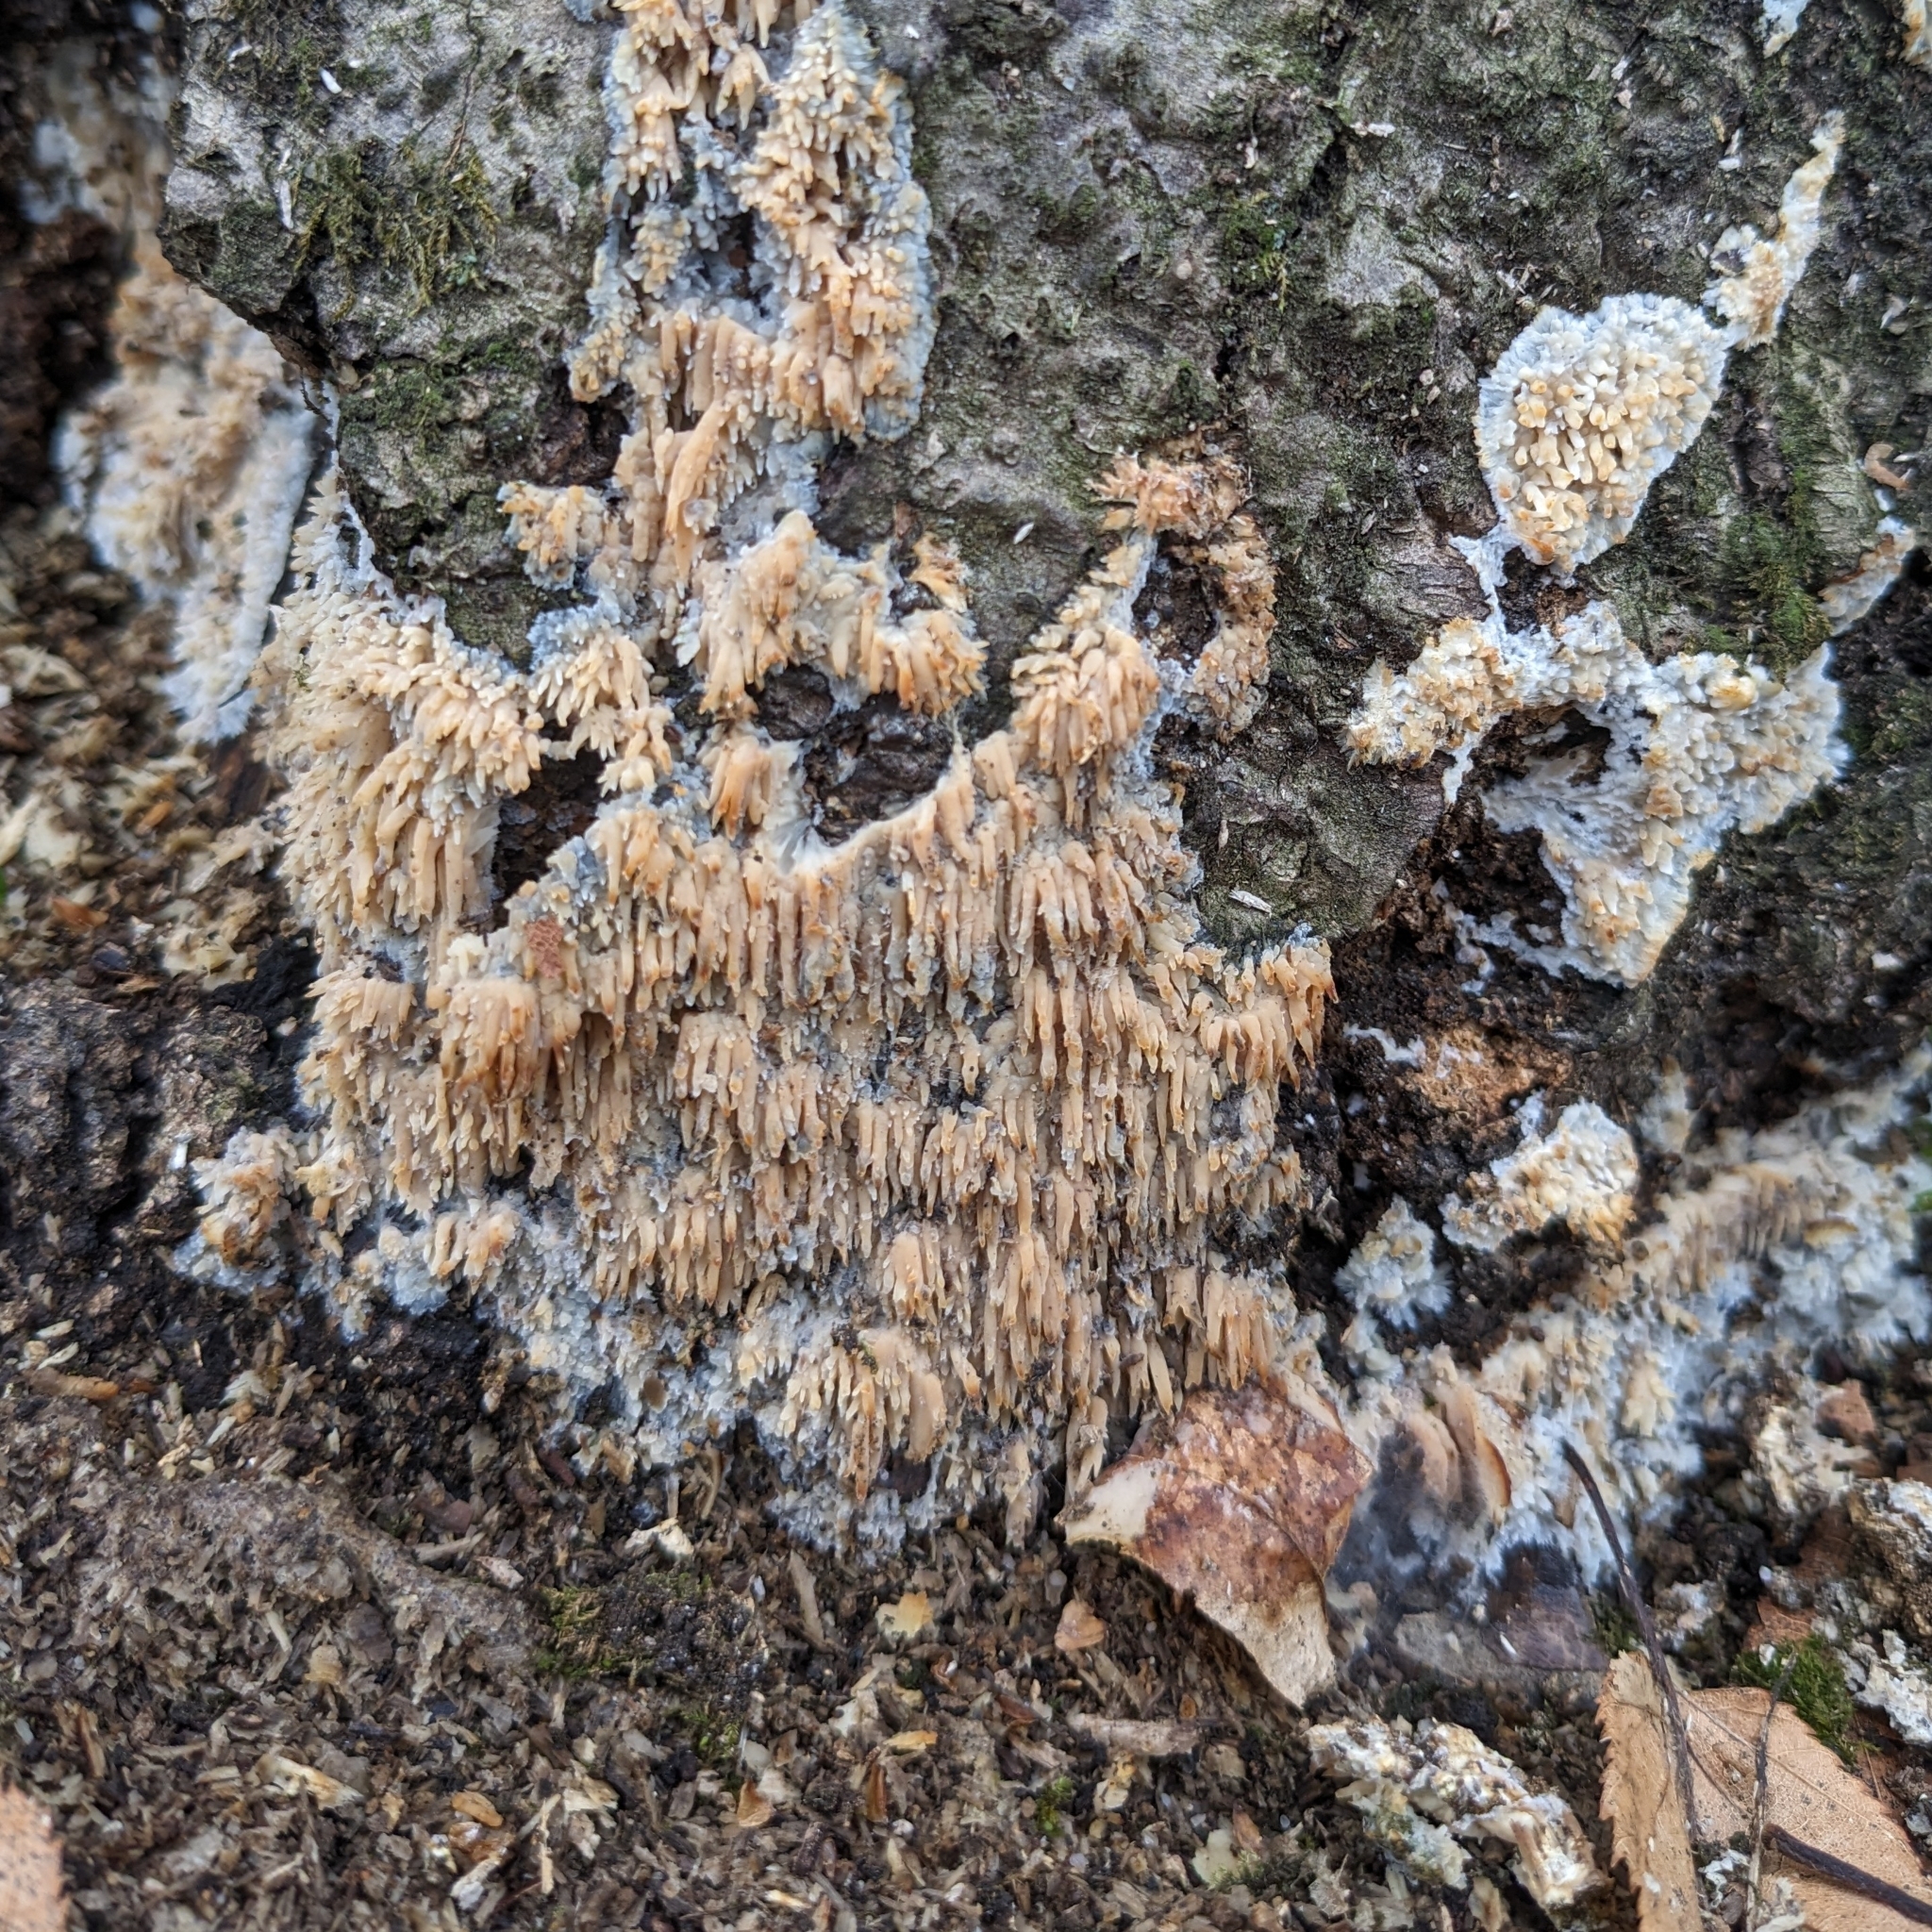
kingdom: Fungi
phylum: Basidiomycota
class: Agaricomycetes
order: Agaricales
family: Radulomycetaceae
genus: Radulomyces
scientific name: Radulomyces copelandii
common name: Asian beauty
